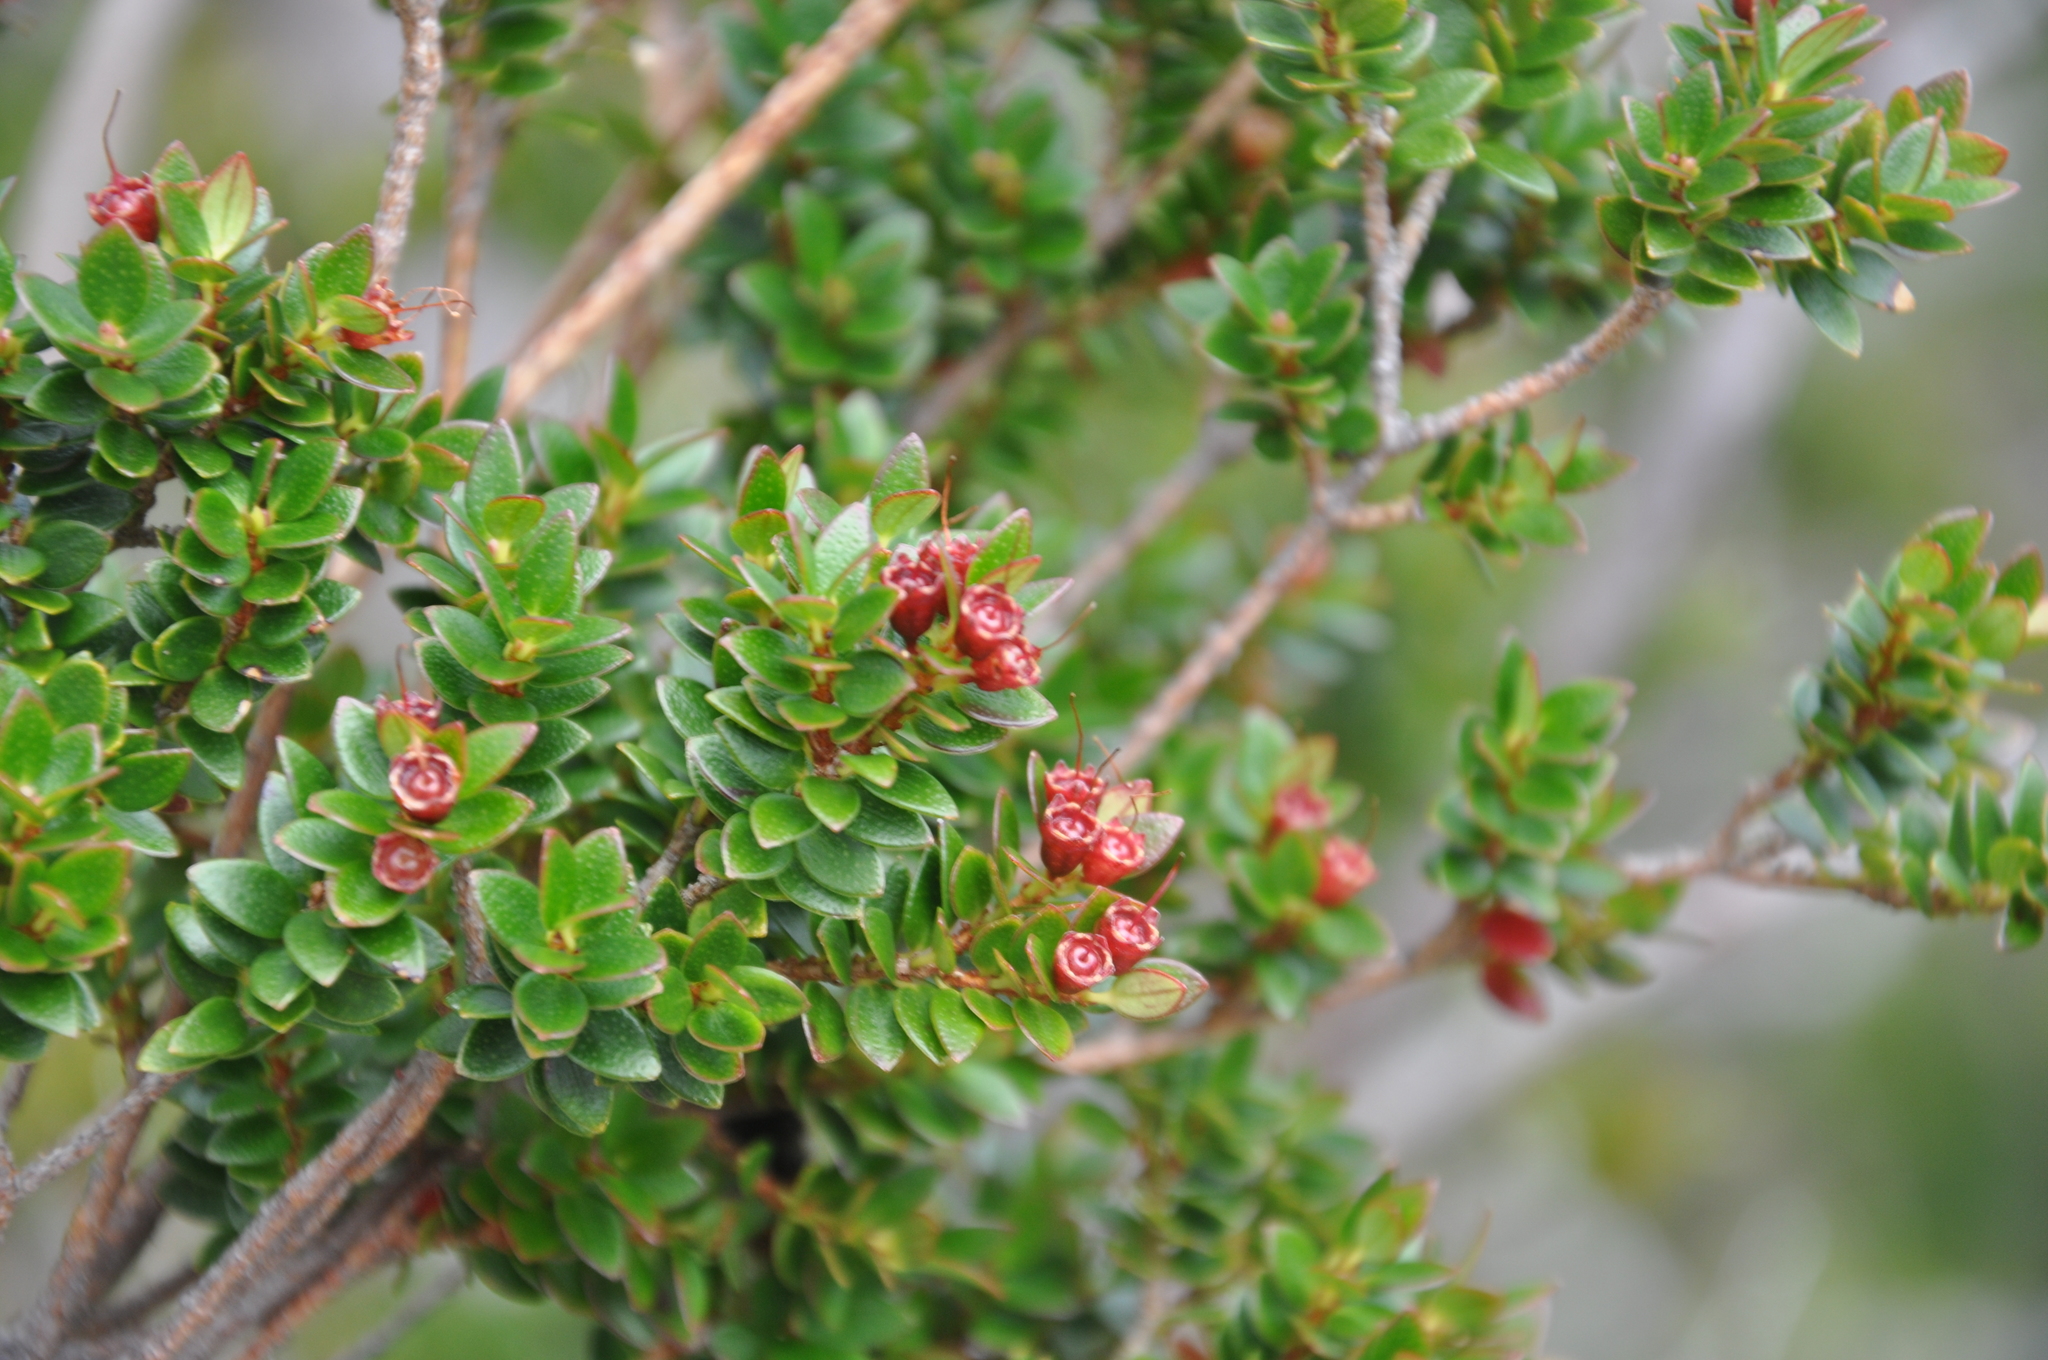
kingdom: Plantae
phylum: Tracheophyta
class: Magnoliopsida
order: Myrtales
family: Myrtaceae
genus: Tepualia
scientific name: Tepualia stipularis
